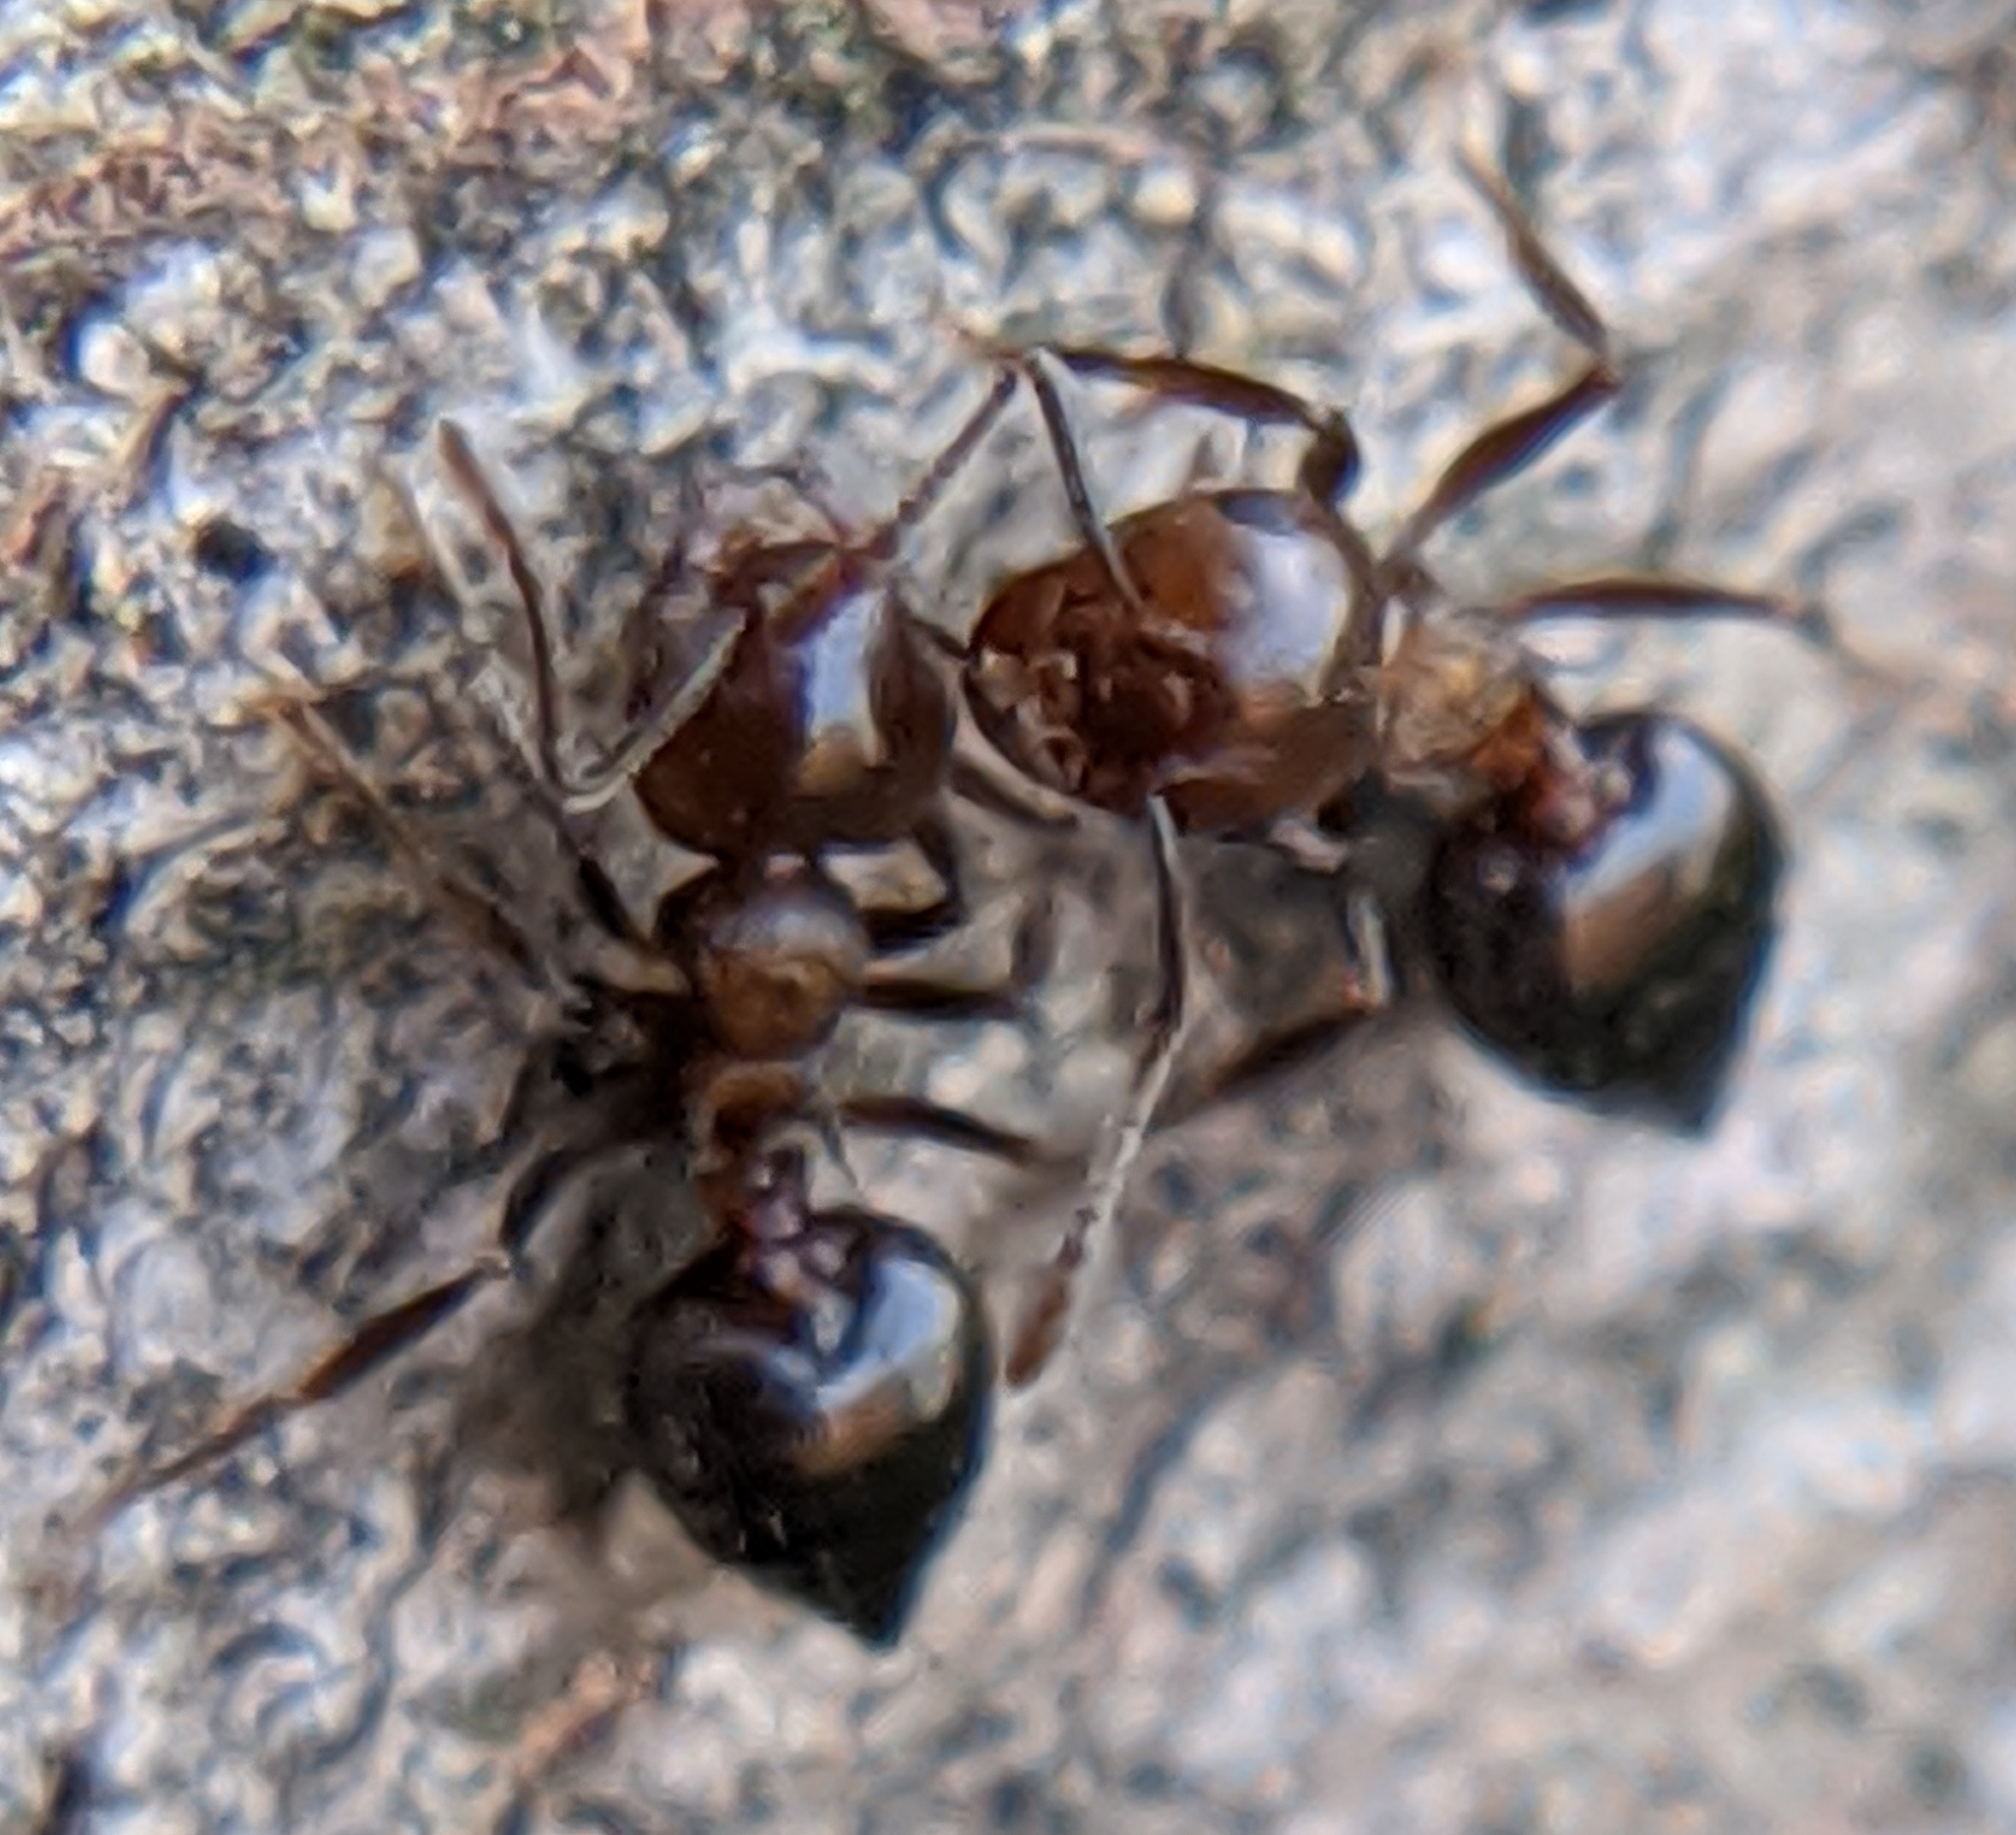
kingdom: Animalia
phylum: Arthropoda
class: Insecta
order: Hymenoptera
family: Formicidae
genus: Crematogaster
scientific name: Crematogaster
